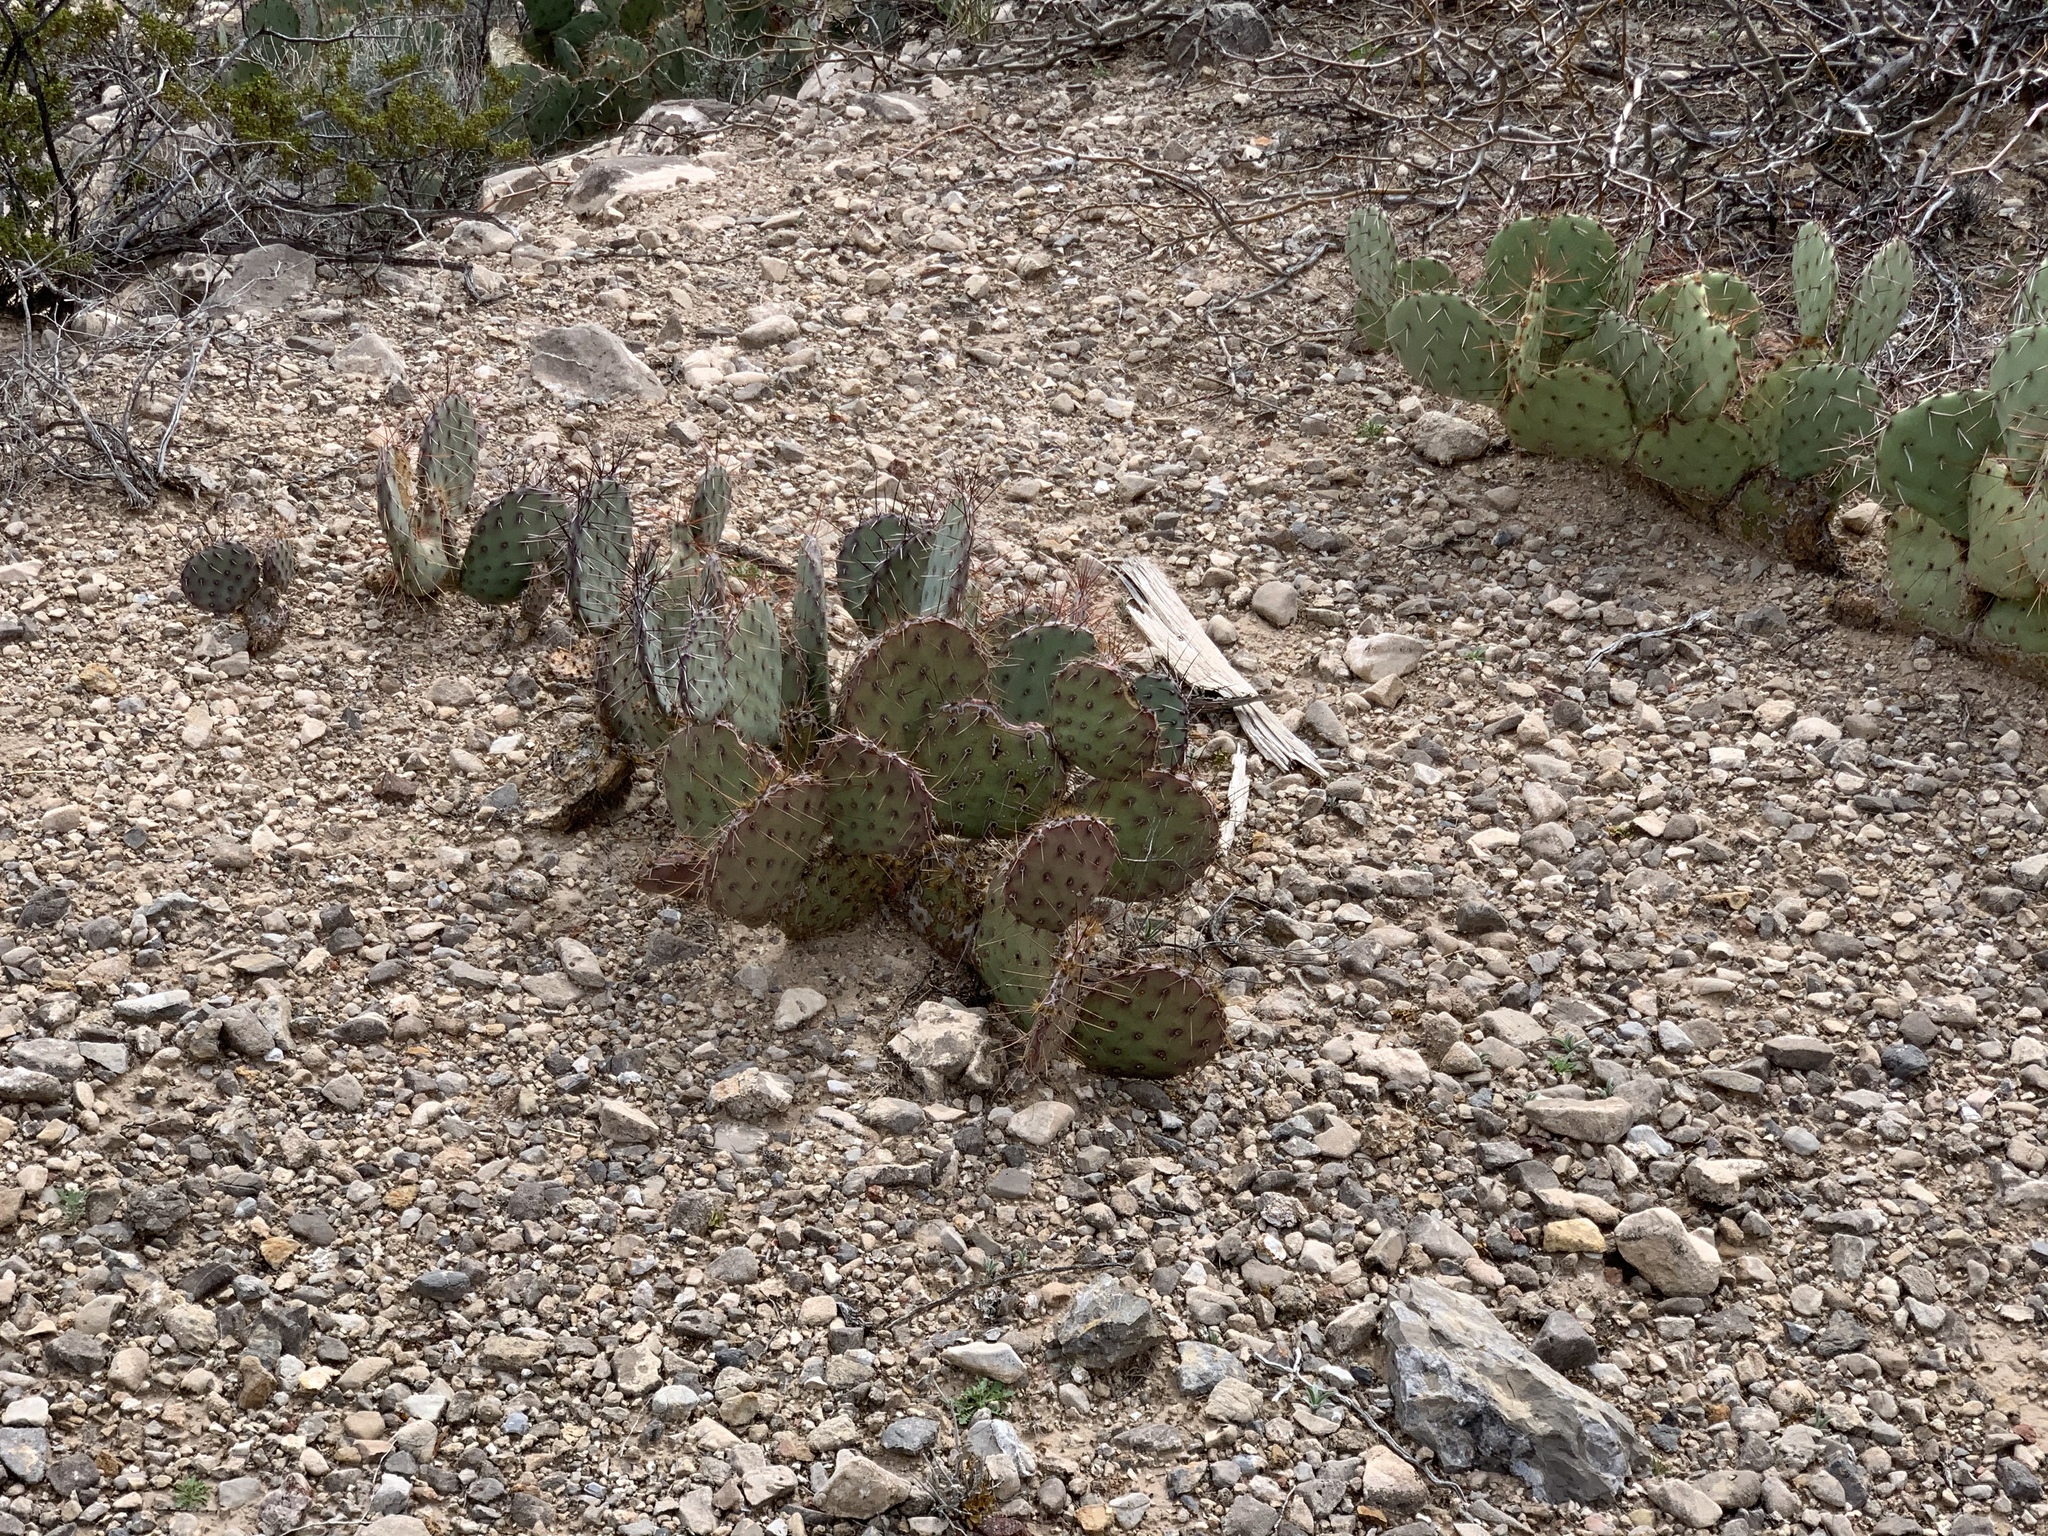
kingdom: Plantae
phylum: Tracheophyta
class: Magnoliopsida
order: Caryophyllales
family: Cactaceae
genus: Opuntia
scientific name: Opuntia phaeacantha
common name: New mexico prickly-pear
